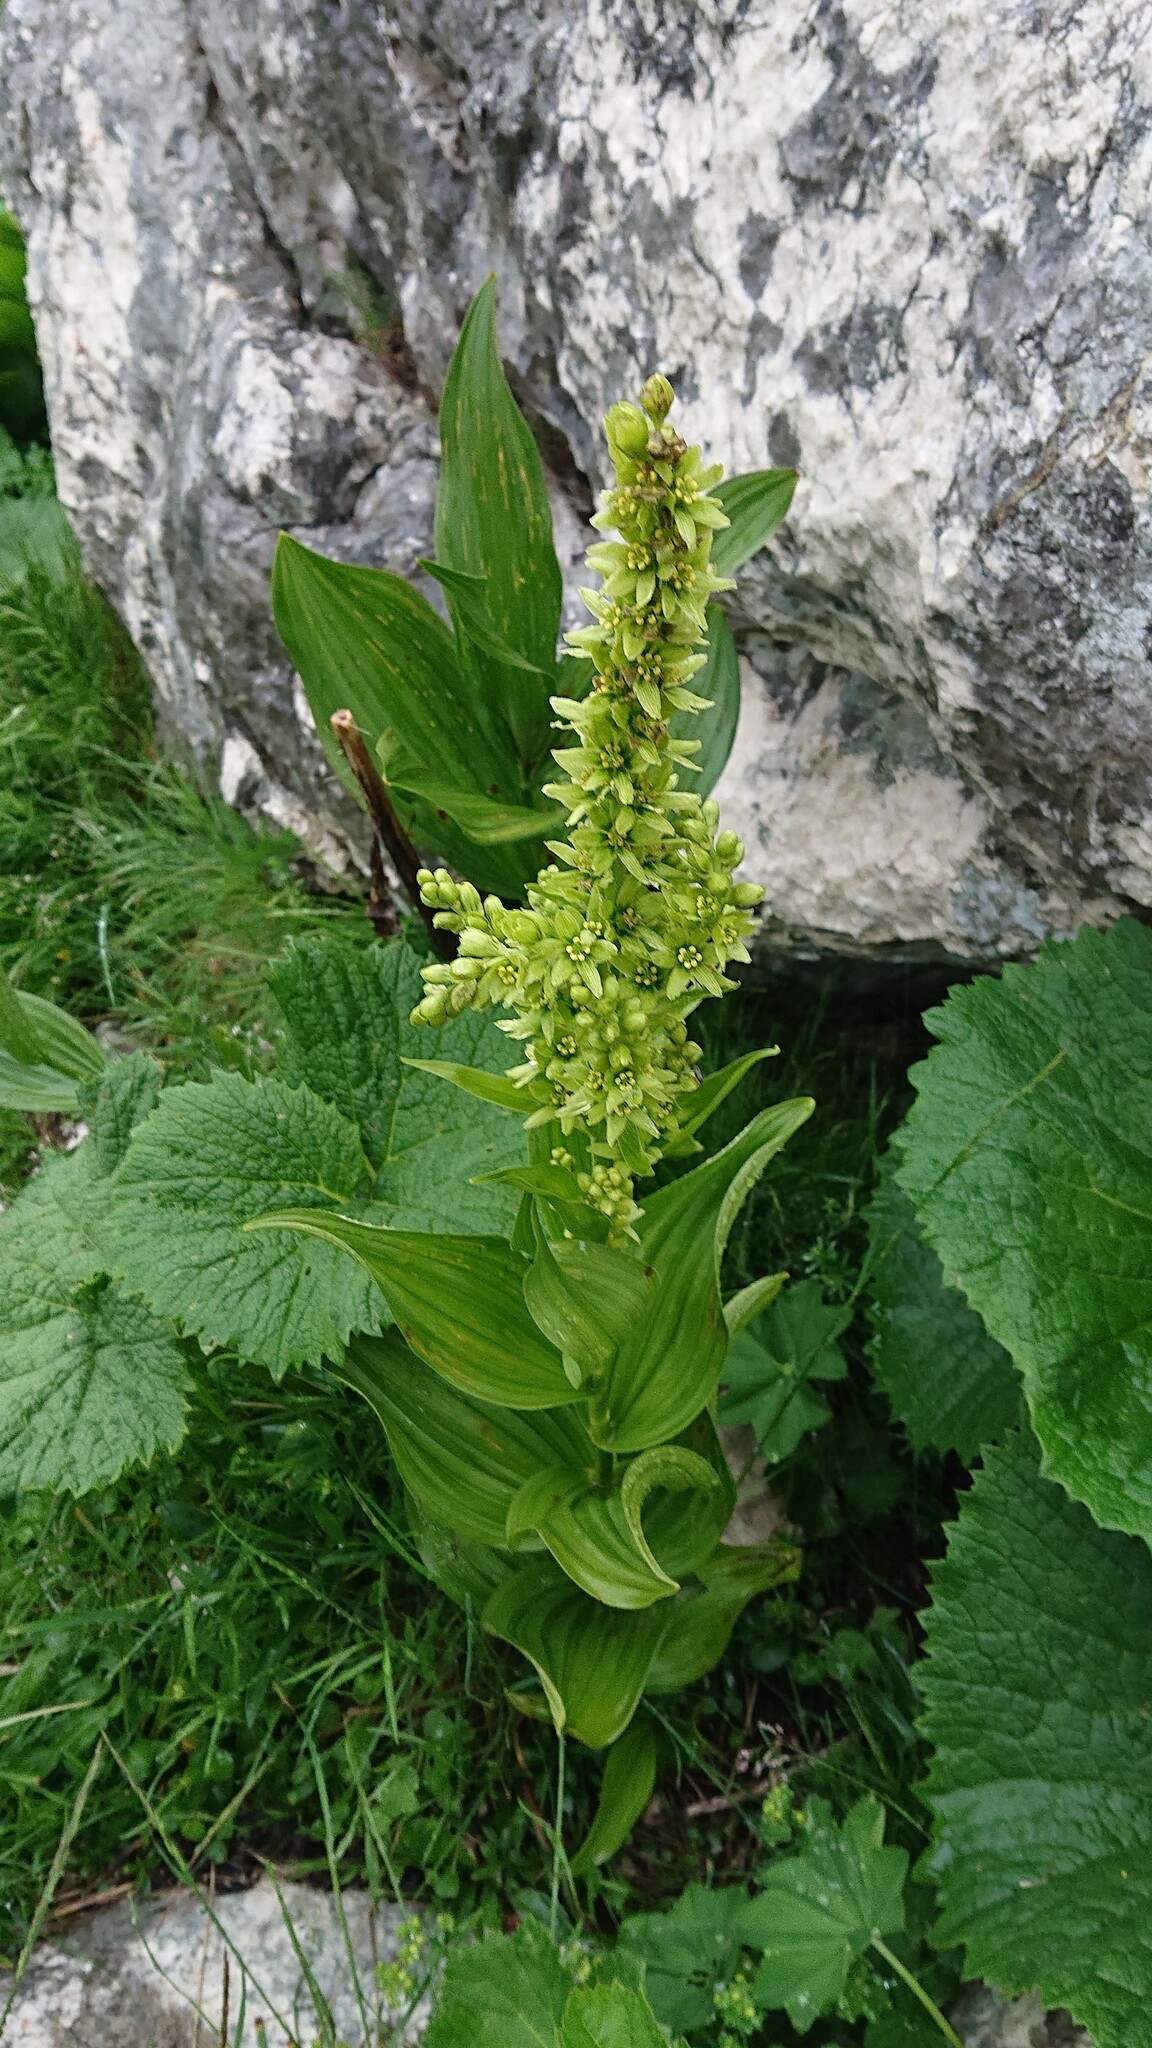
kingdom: Plantae
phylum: Tracheophyta
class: Liliopsida
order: Liliales
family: Melanthiaceae
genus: Veratrum
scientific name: Veratrum lobelianum
